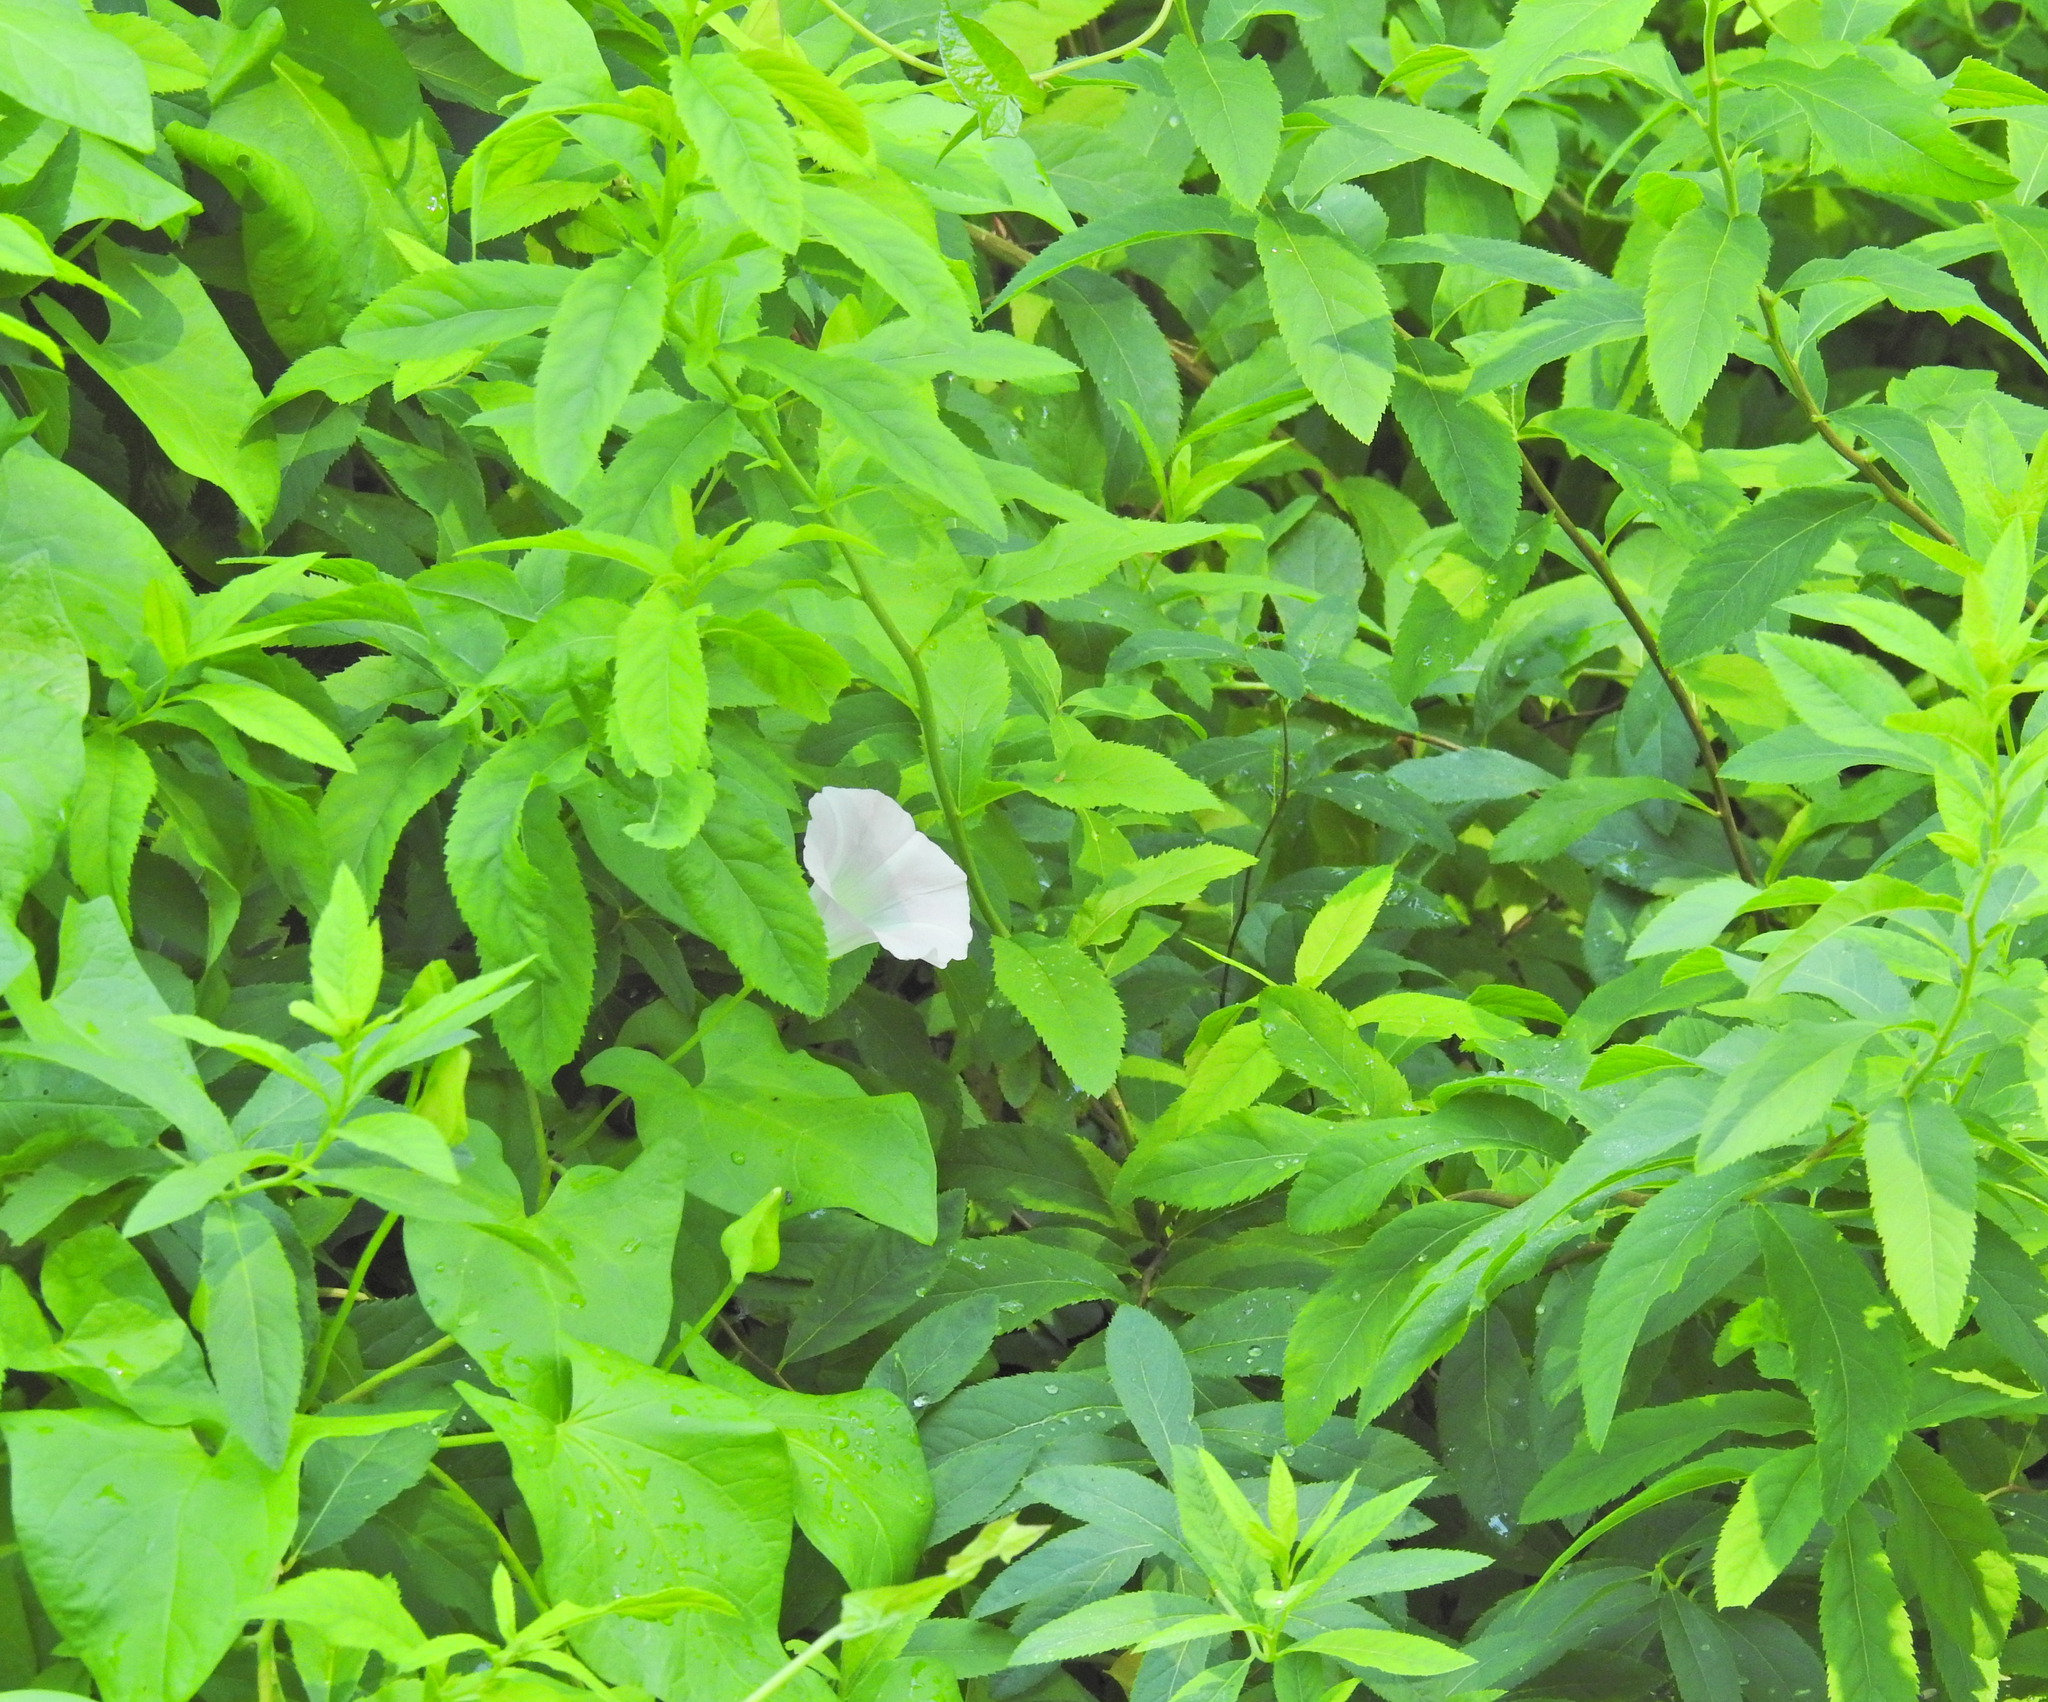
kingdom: Plantae
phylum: Tracheophyta
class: Magnoliopsida
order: Solanales
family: Convolvulaceae
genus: Calystegia
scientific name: Calystegia sepium
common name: Hedge bindweed
